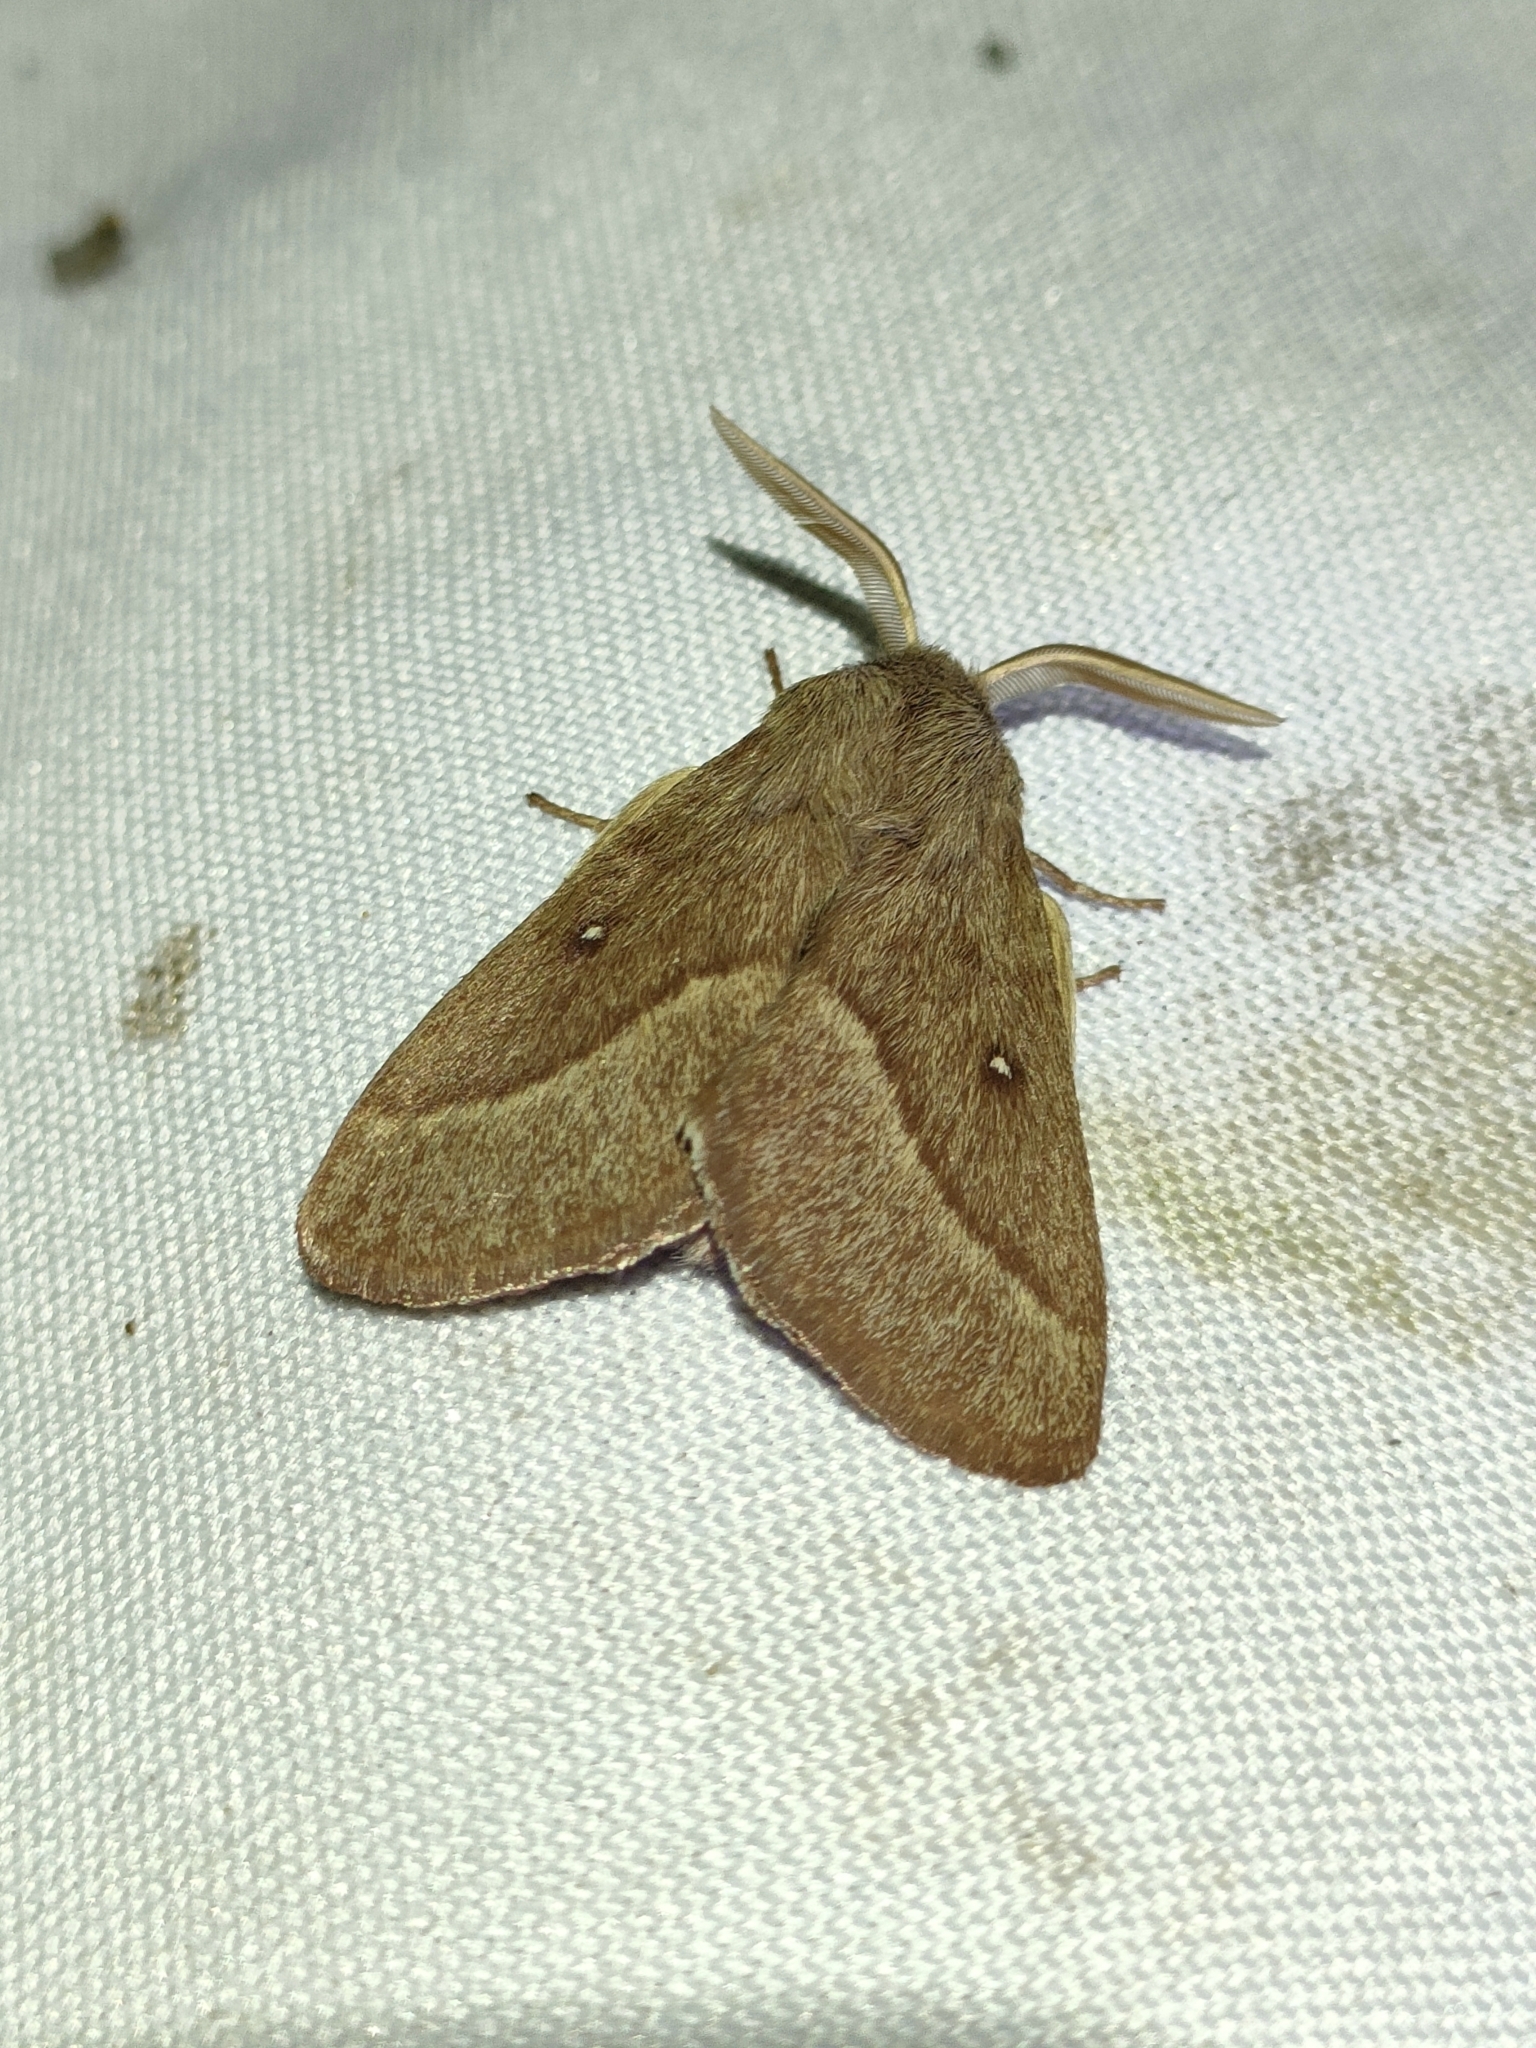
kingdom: Animalia
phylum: Arthropoda
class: Insecta
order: Lepidoptera
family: Lasiocampidae
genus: Lasiocampa
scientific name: Lasiocampa trifolii
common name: Grass eggar
